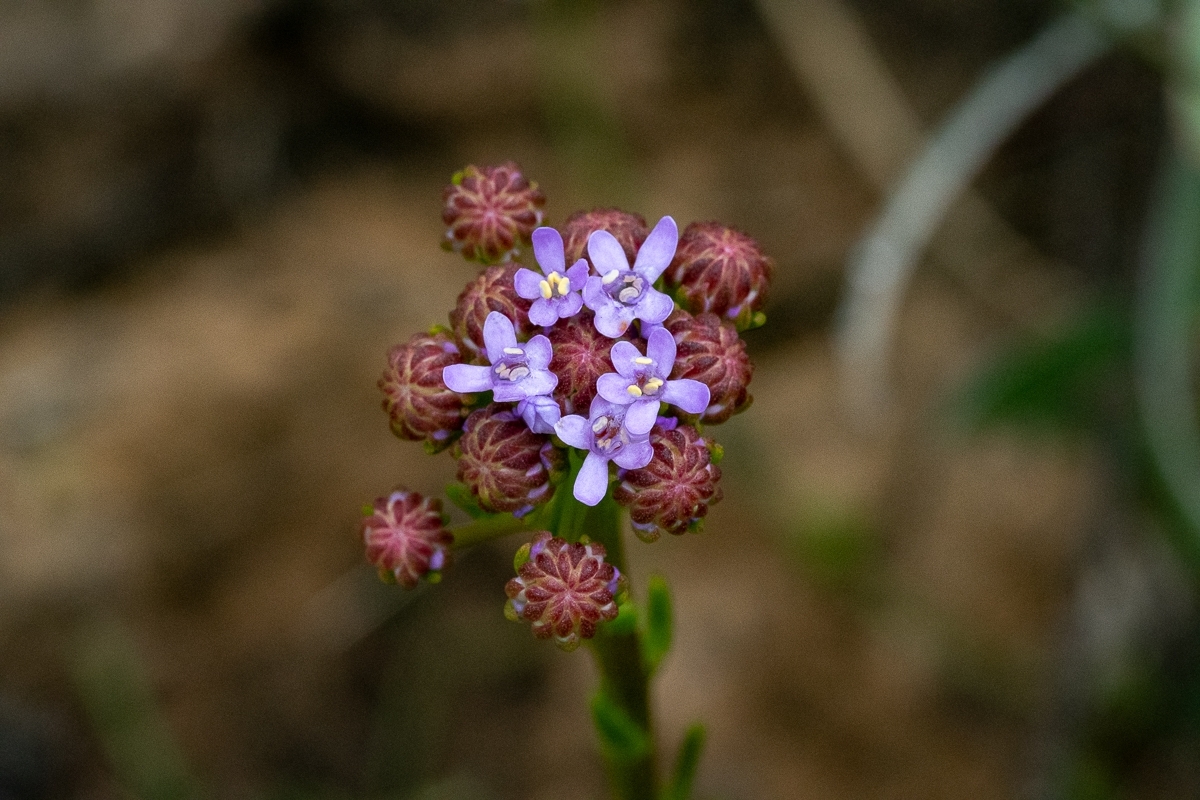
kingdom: Plantae
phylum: Tracheophyta
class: Magnoliopsida
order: Lamiales
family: Scrophulariaceae
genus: Pseudoselago
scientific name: Pseudoselago spuria
